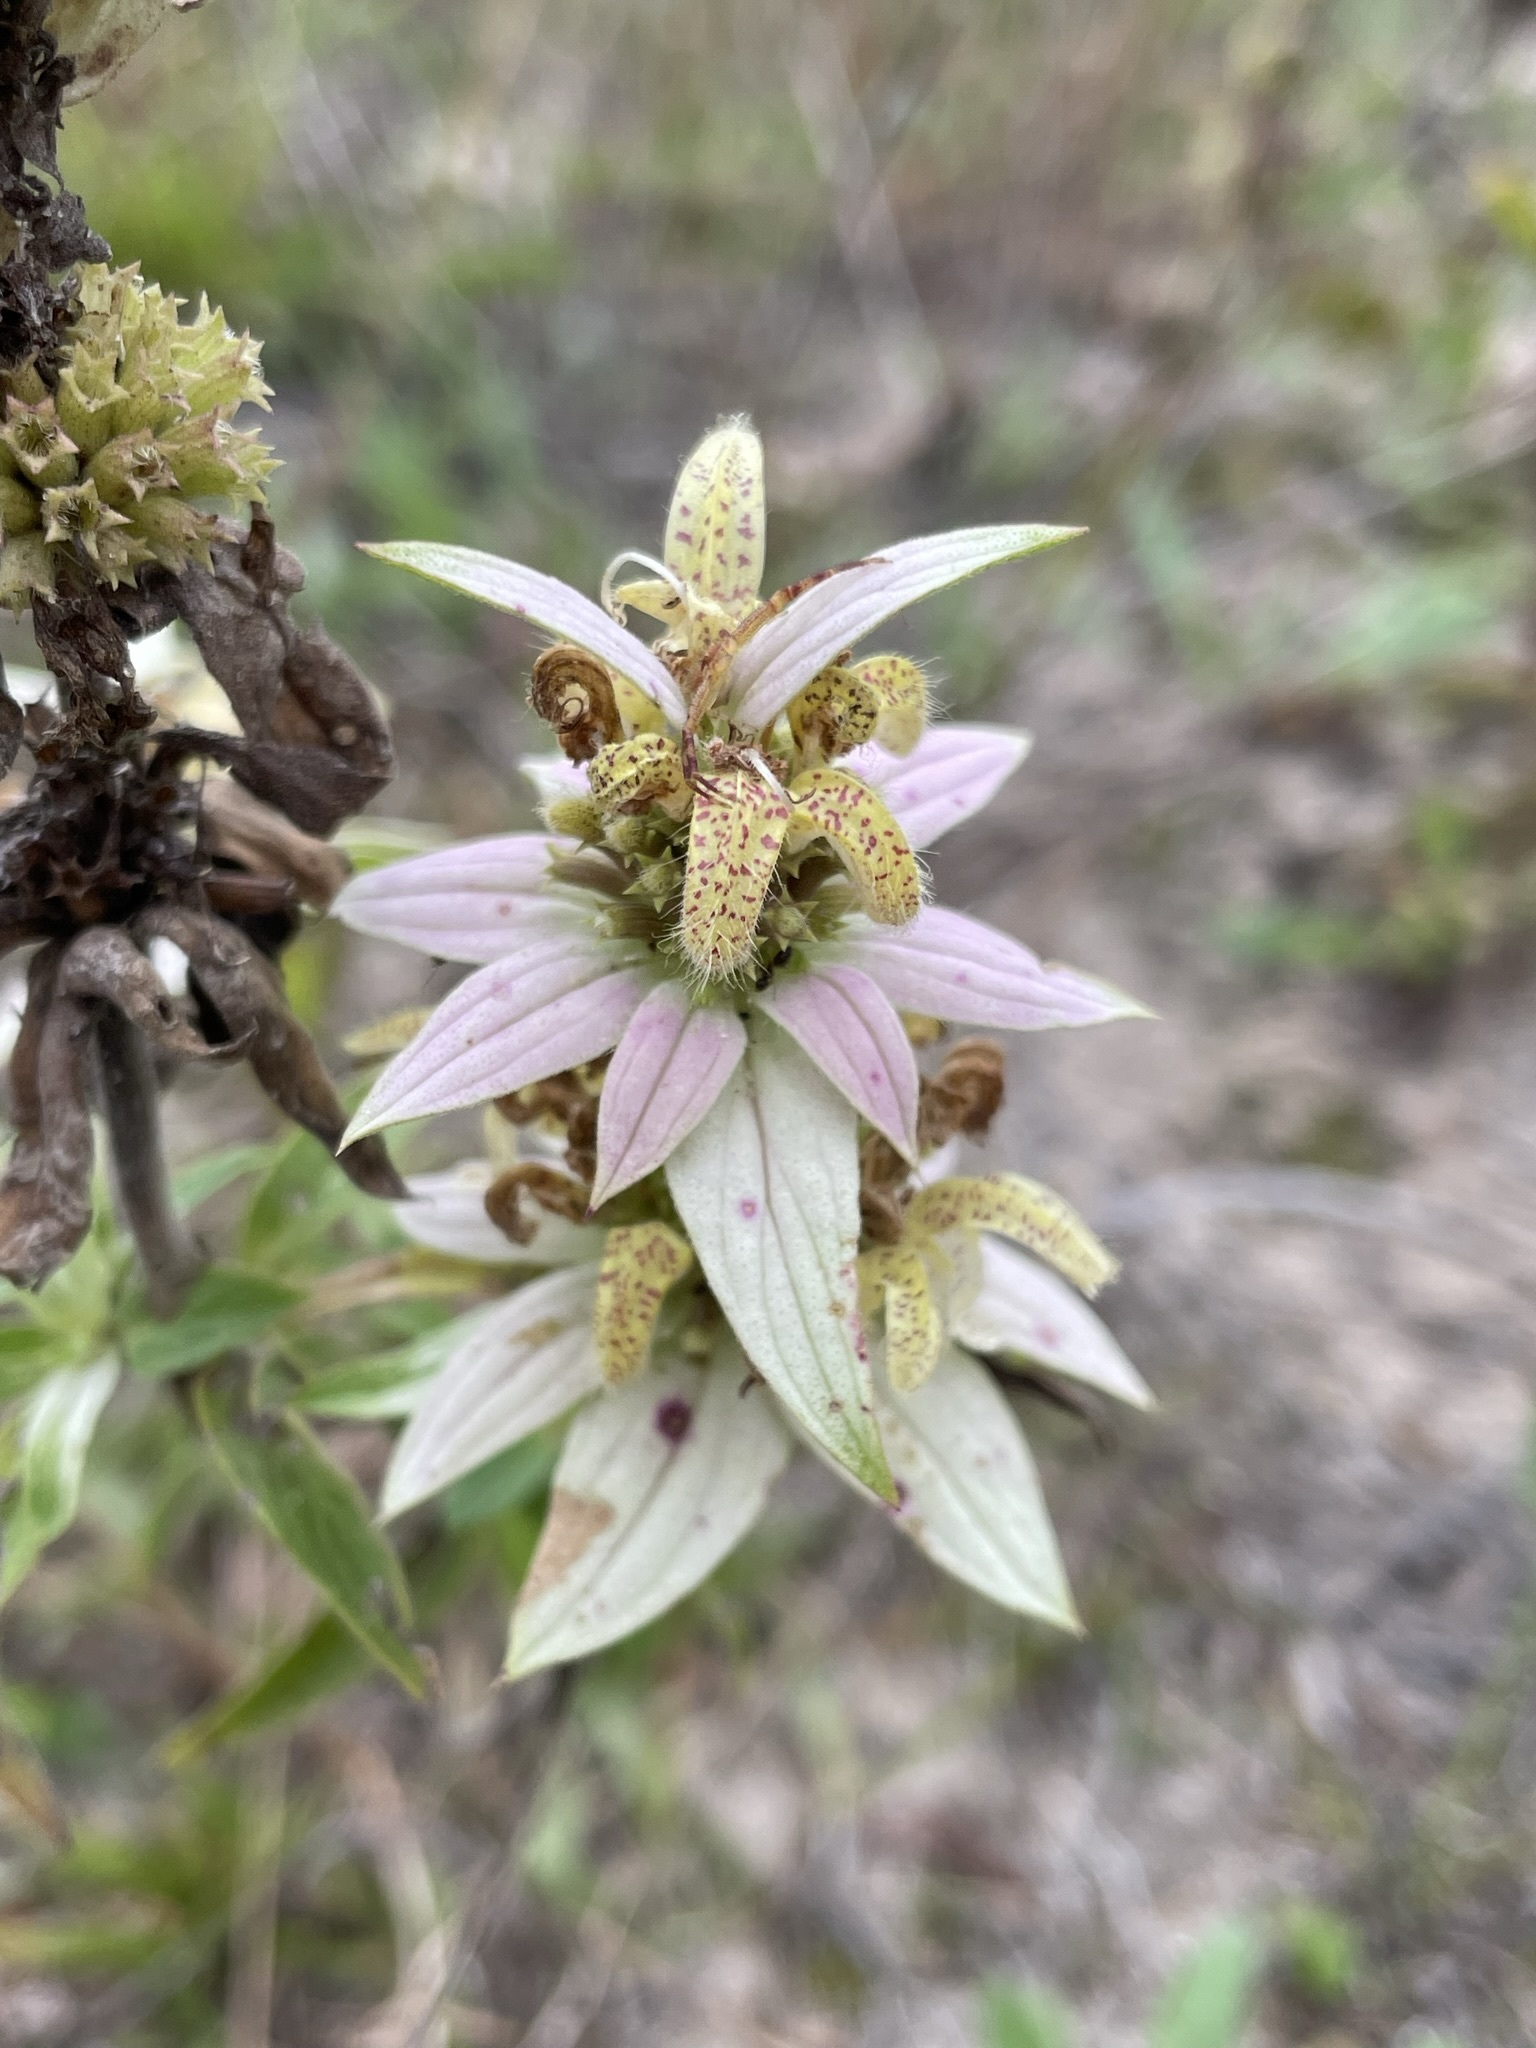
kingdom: Plantae
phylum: Tracheophyta
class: Magnoliopsida
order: Lamiales
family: Lamiaceae
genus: Monarda
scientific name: Monarda punctata
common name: Dotted monarda
